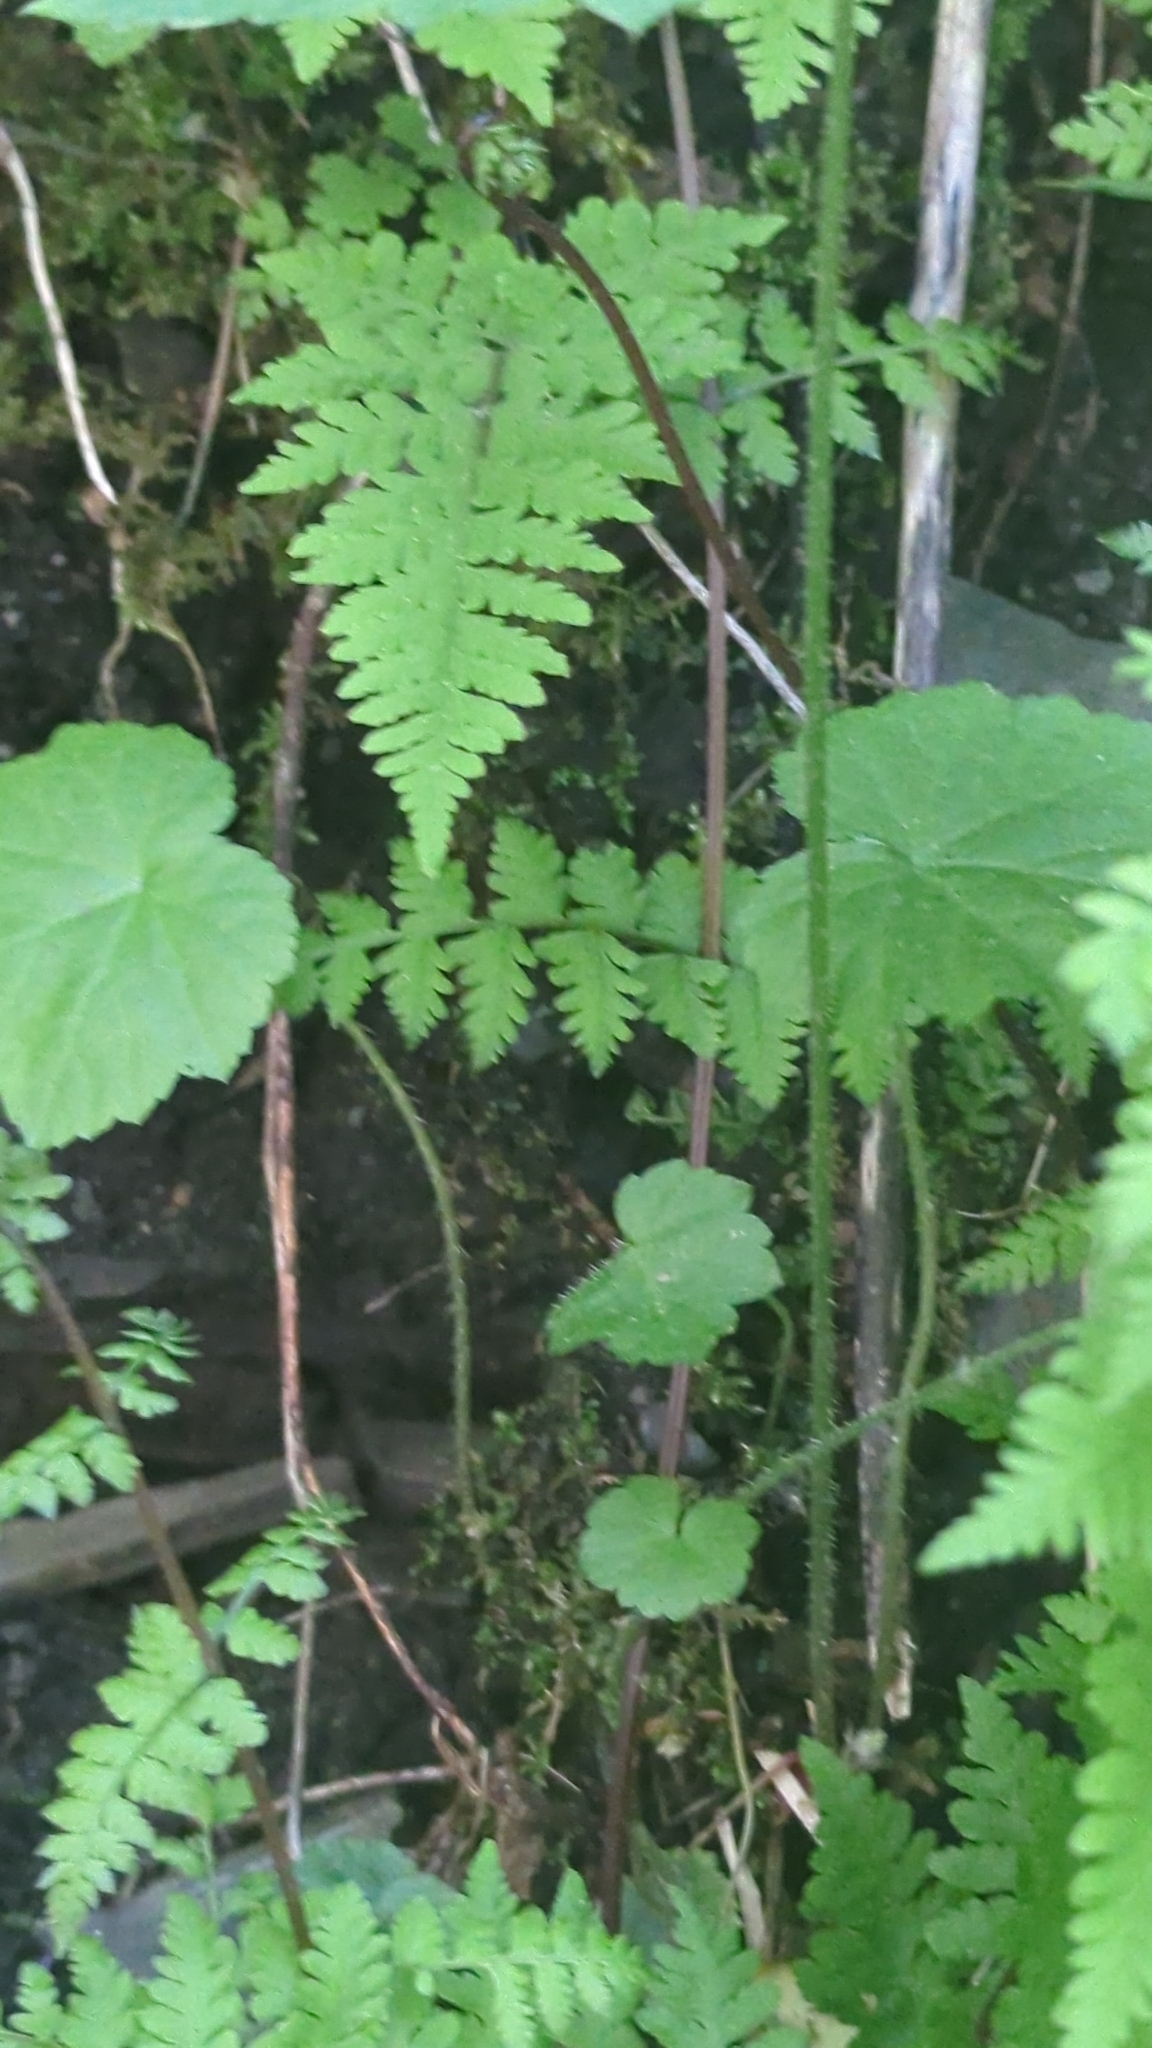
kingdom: Plantae
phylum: Tracheophyta
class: Magnoliopsida
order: Saxifragales
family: Saxifragaceae
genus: Mitella
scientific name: Mitella diphylla
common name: Coolwort
